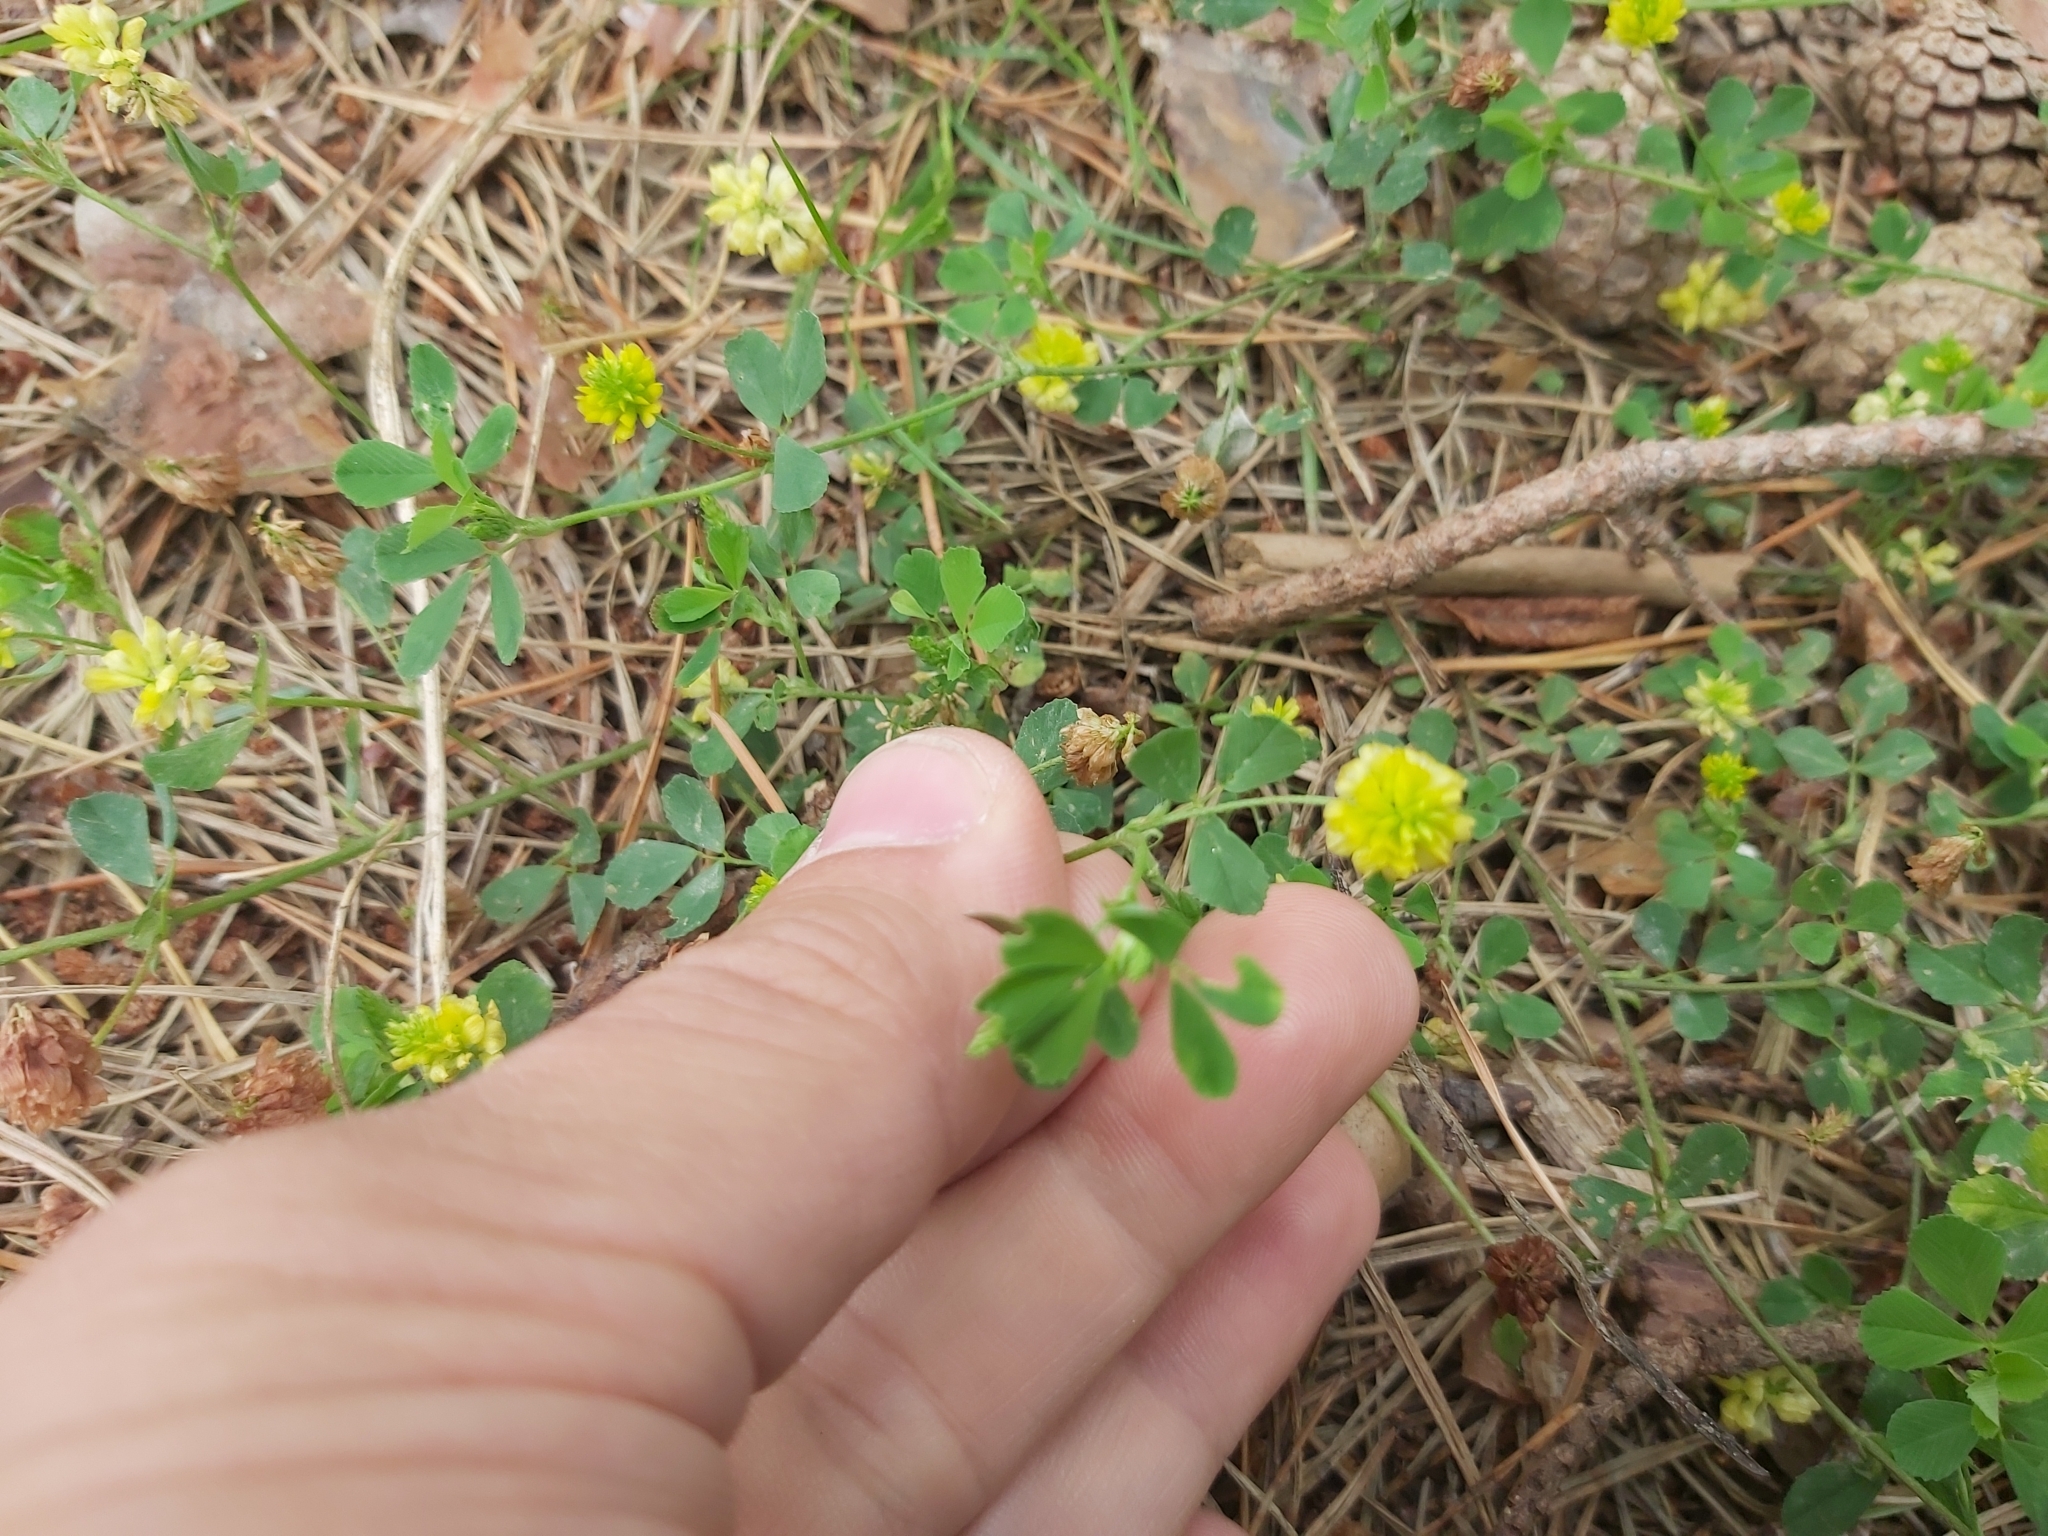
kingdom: Plantae
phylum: Tracheophyta
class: Magnoliopsida
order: Fabales
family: Fabaceae
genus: Trifolium
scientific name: Trifolium campestre
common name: Field clover
